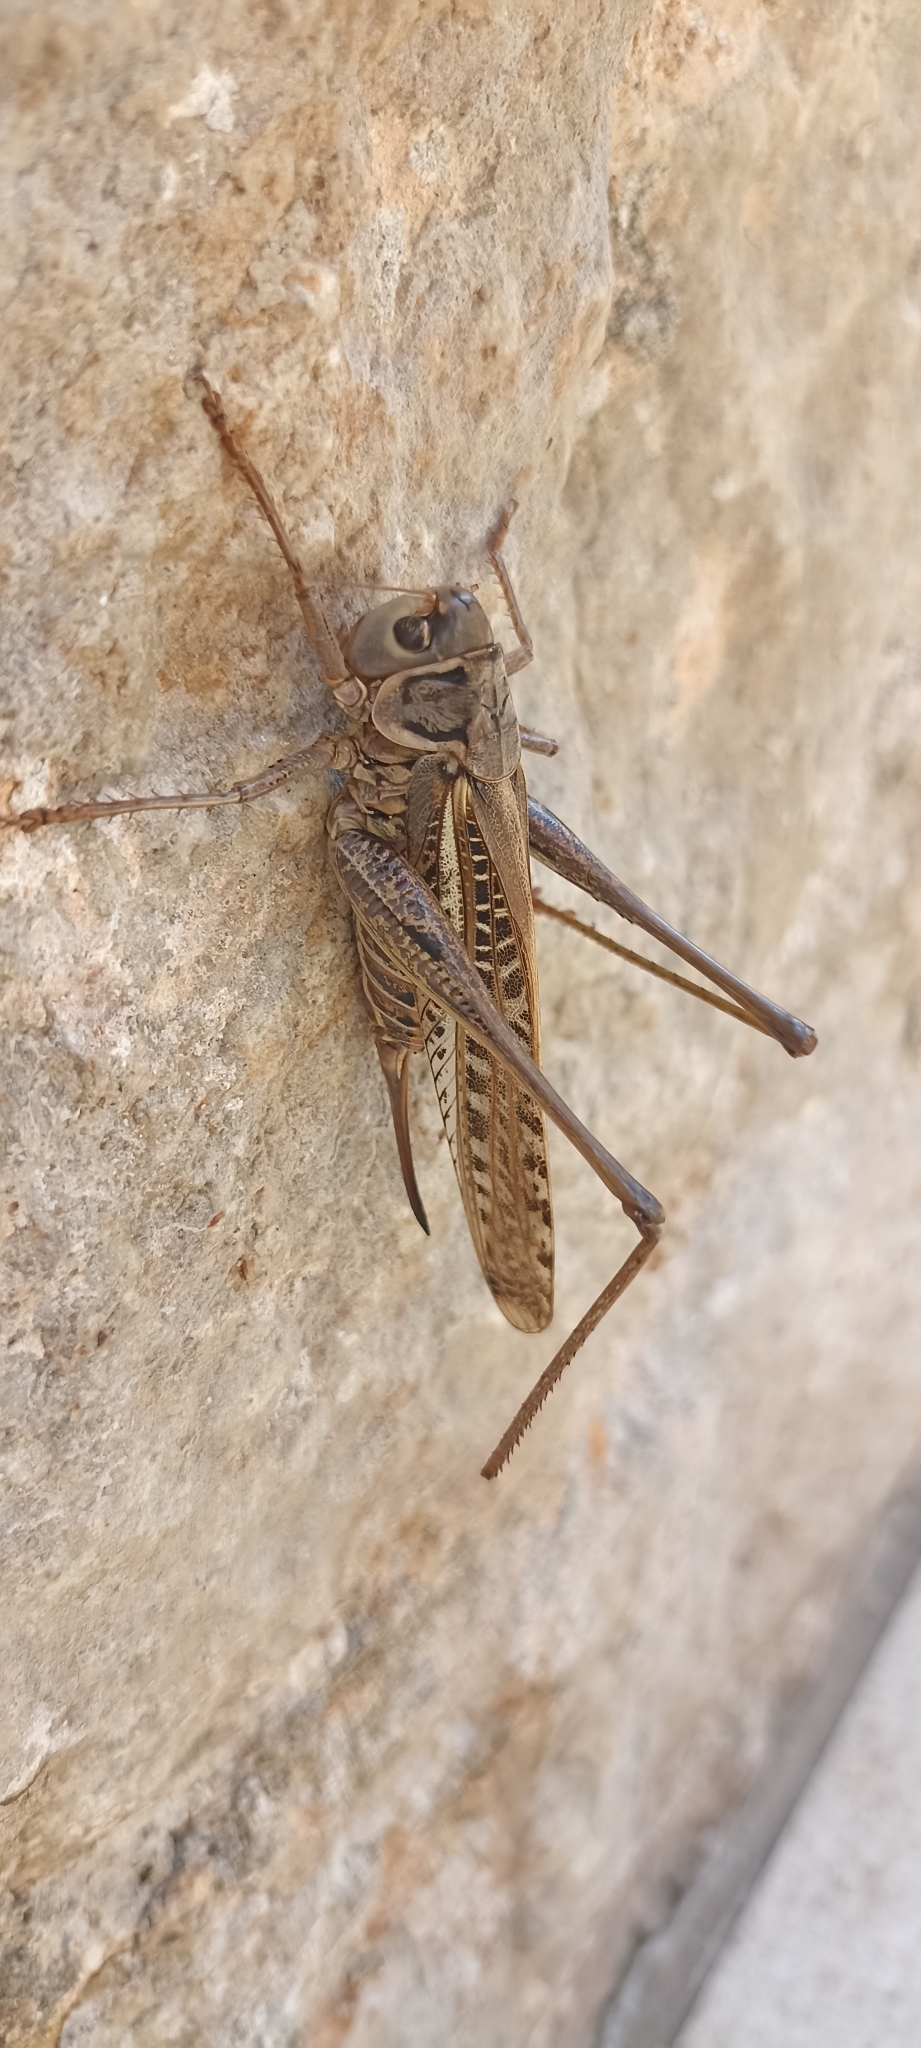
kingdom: Animalia
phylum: Arthropoda
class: Insecta
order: Orthoptera
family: Tettigoniidae
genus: Decticus
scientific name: Decticus albifrons
